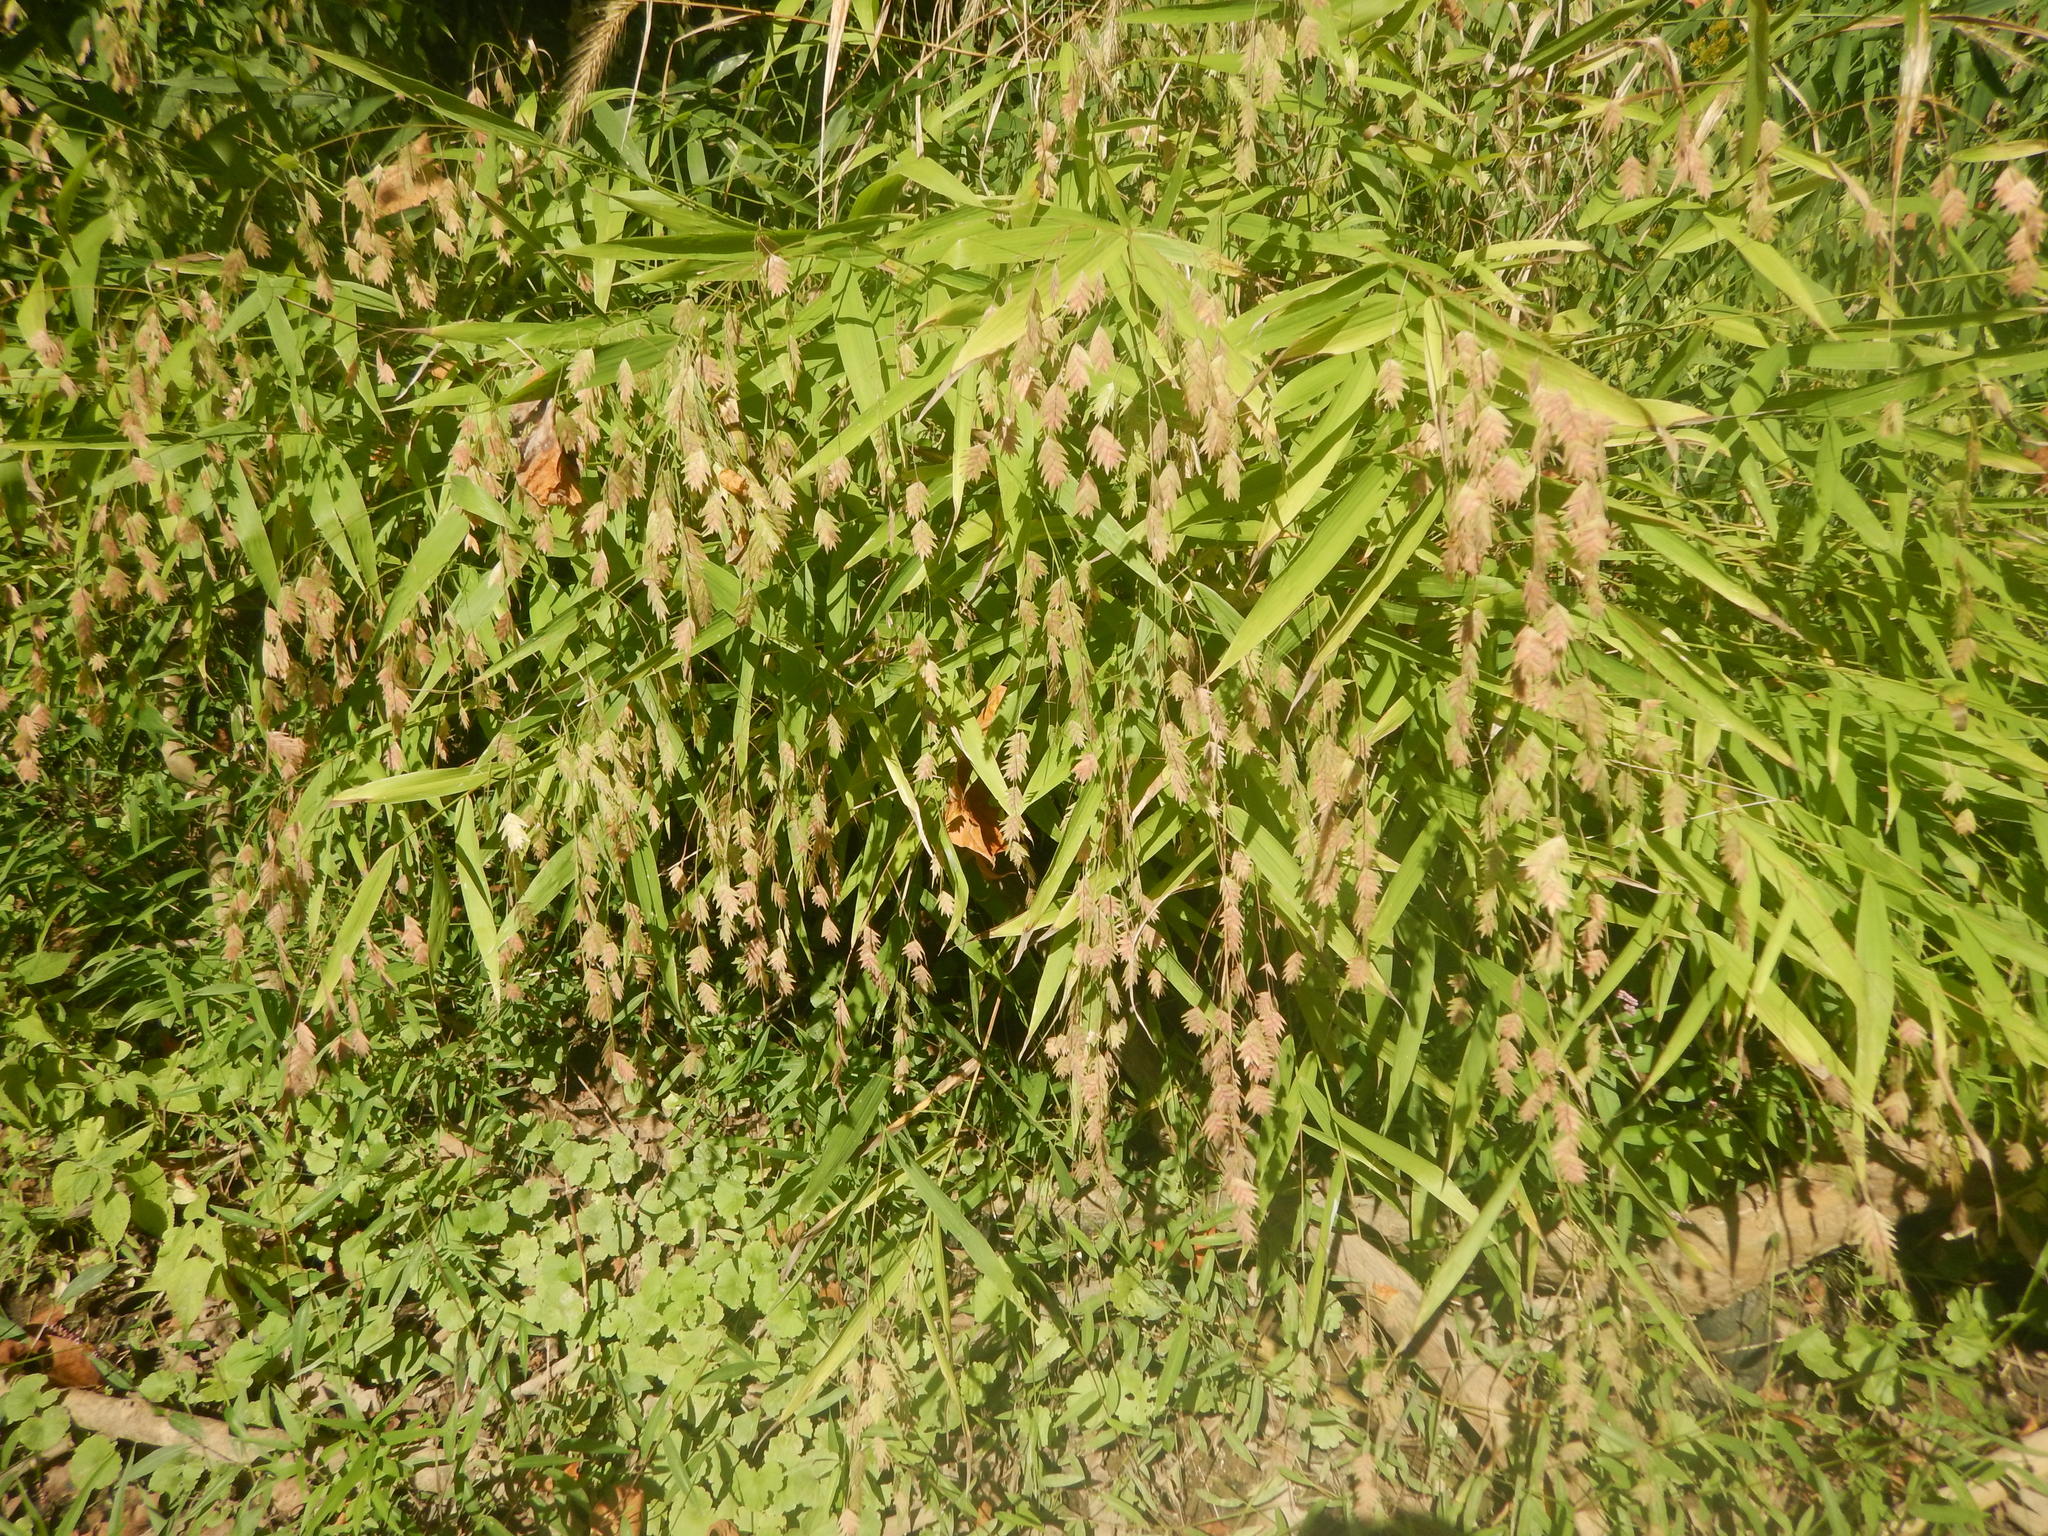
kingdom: Plantae
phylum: Tracheophyta
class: Liliopsida
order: Poales
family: Poaceae
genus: Chasmanthium
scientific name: Chasmanthium latifolium
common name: Broad-leaved chasmanthium
